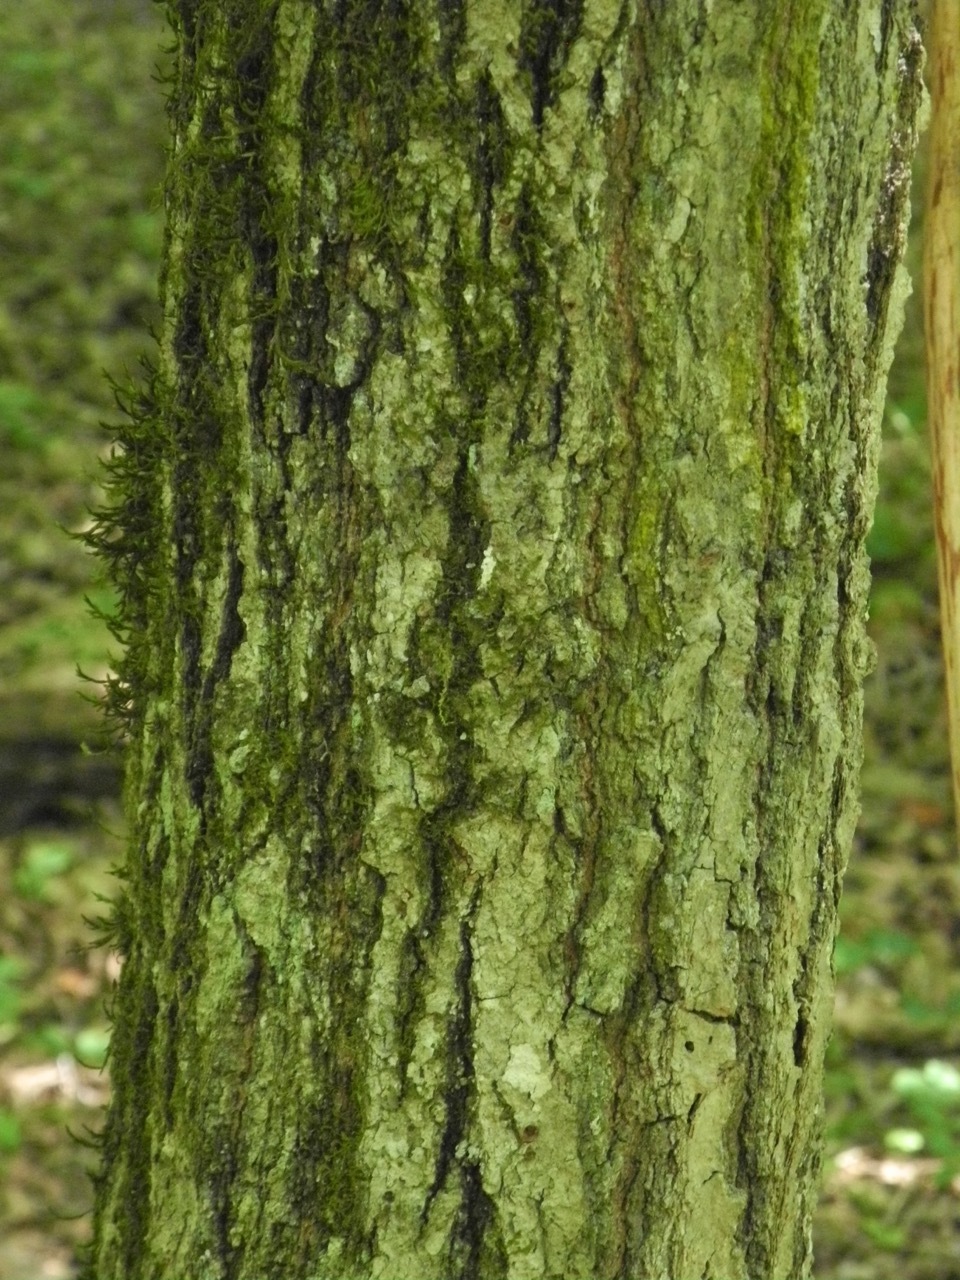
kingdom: Plantae
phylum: Tracheophyta
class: Magnoliopsida
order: Fagales
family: Fagaceae
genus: Quercus
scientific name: Quercus imbricaria
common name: Shingle oak
